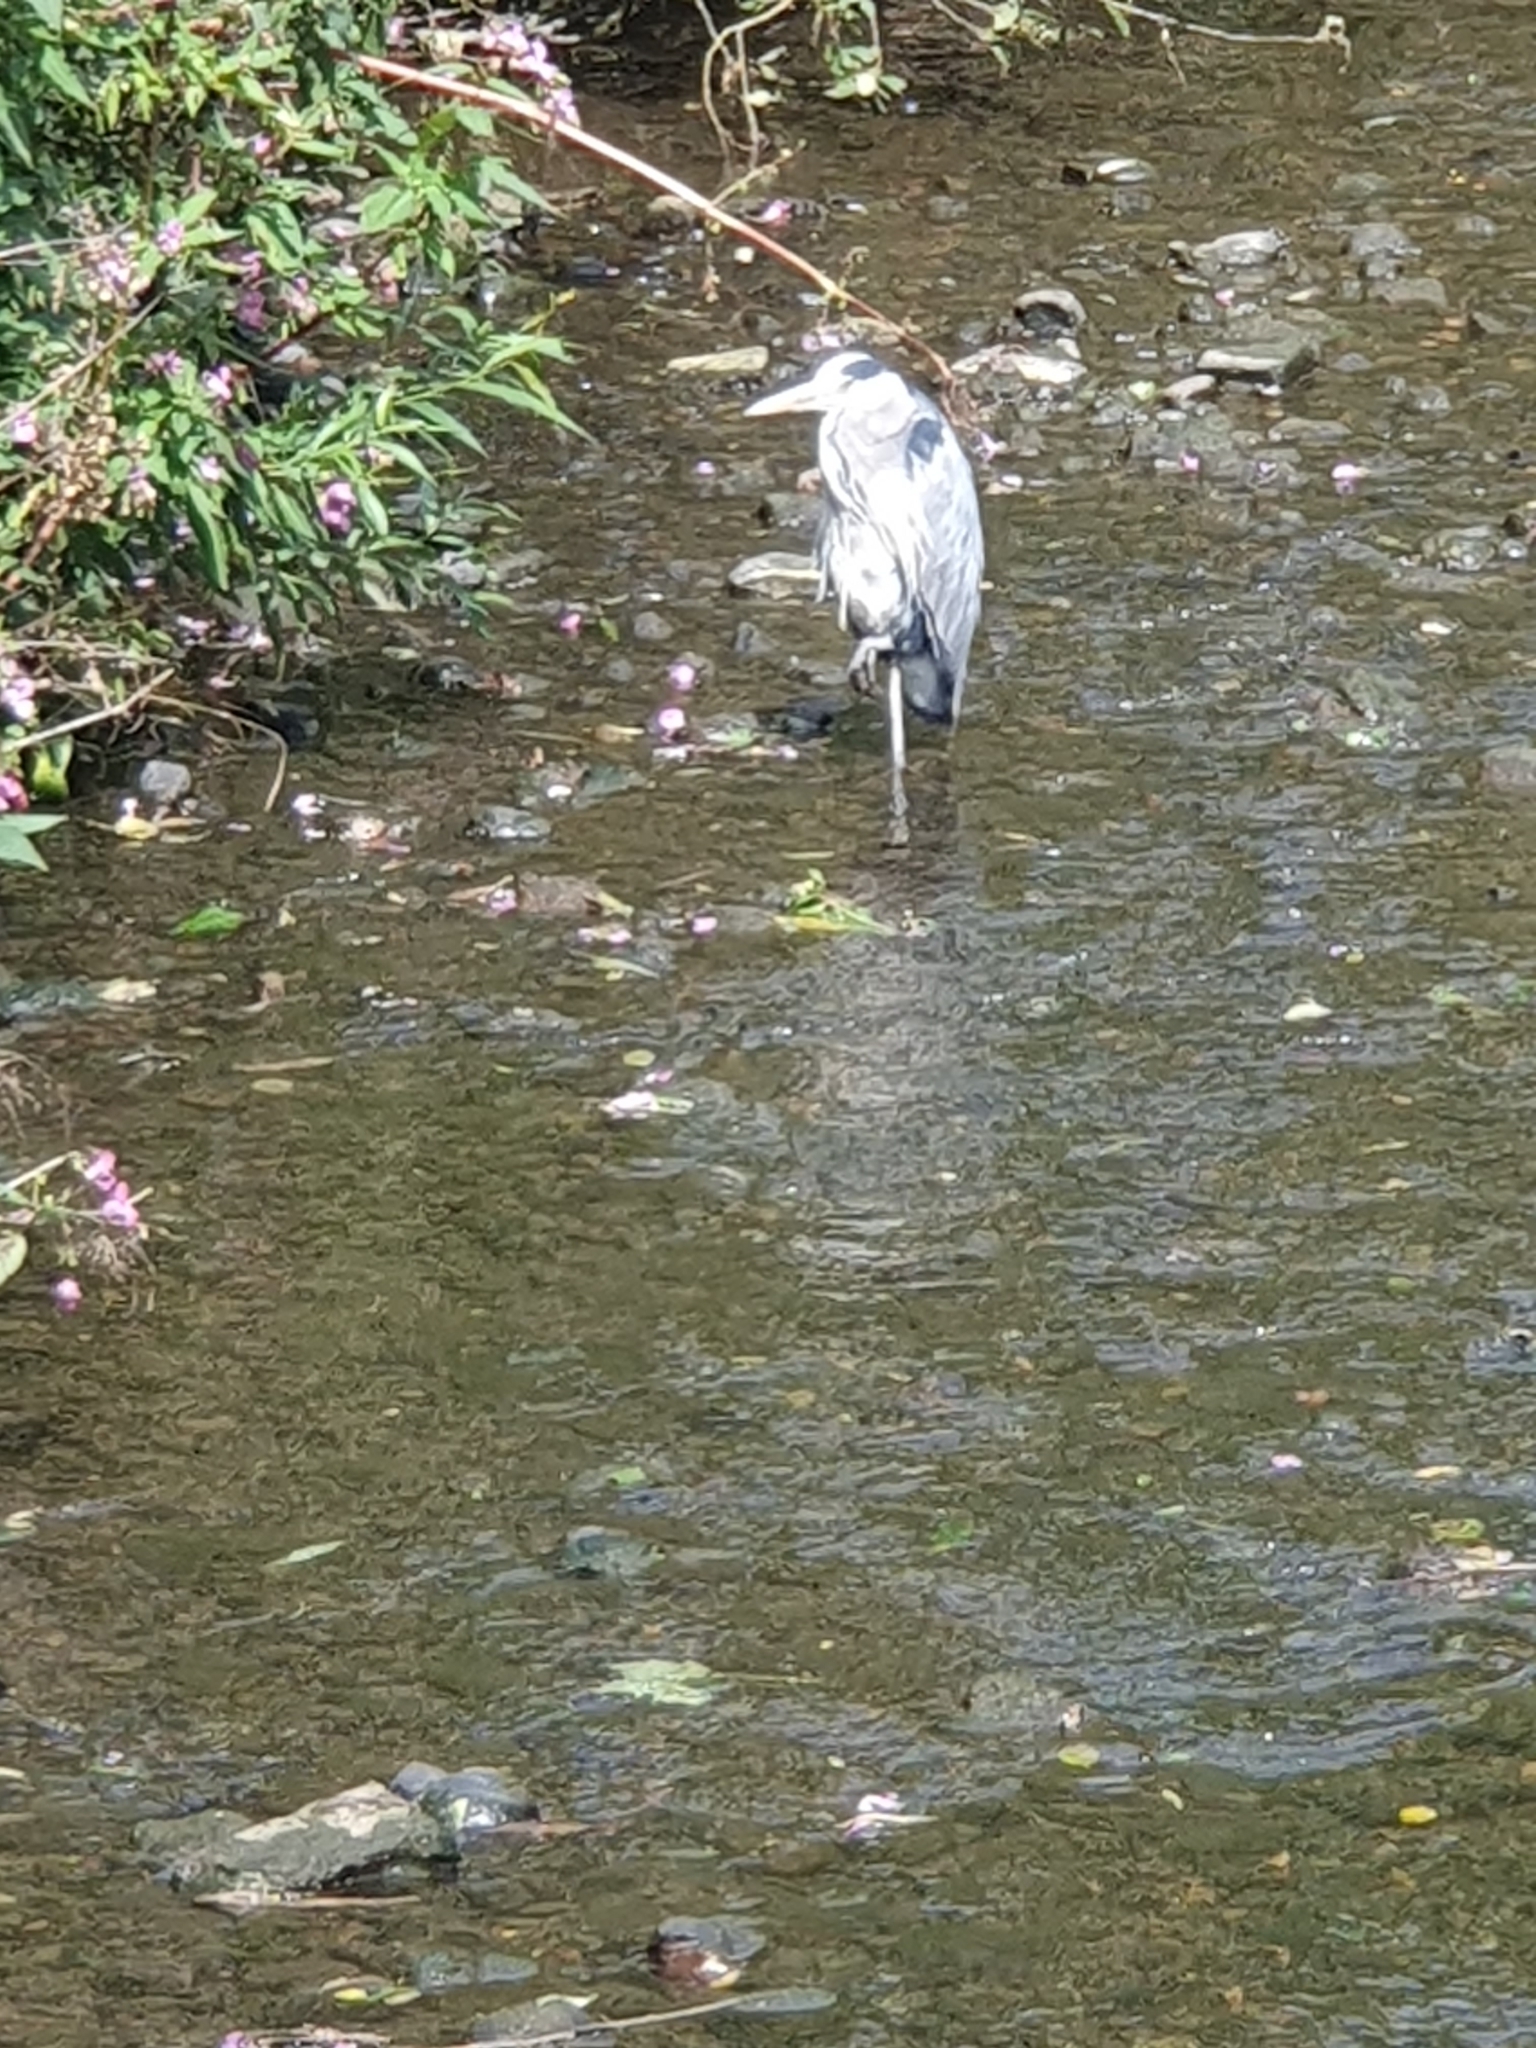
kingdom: Animalia
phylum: Chordata
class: Aves
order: Pelecaniformes
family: Ardeidae
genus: Ardea
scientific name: Ardea cinerea
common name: Grey heron
